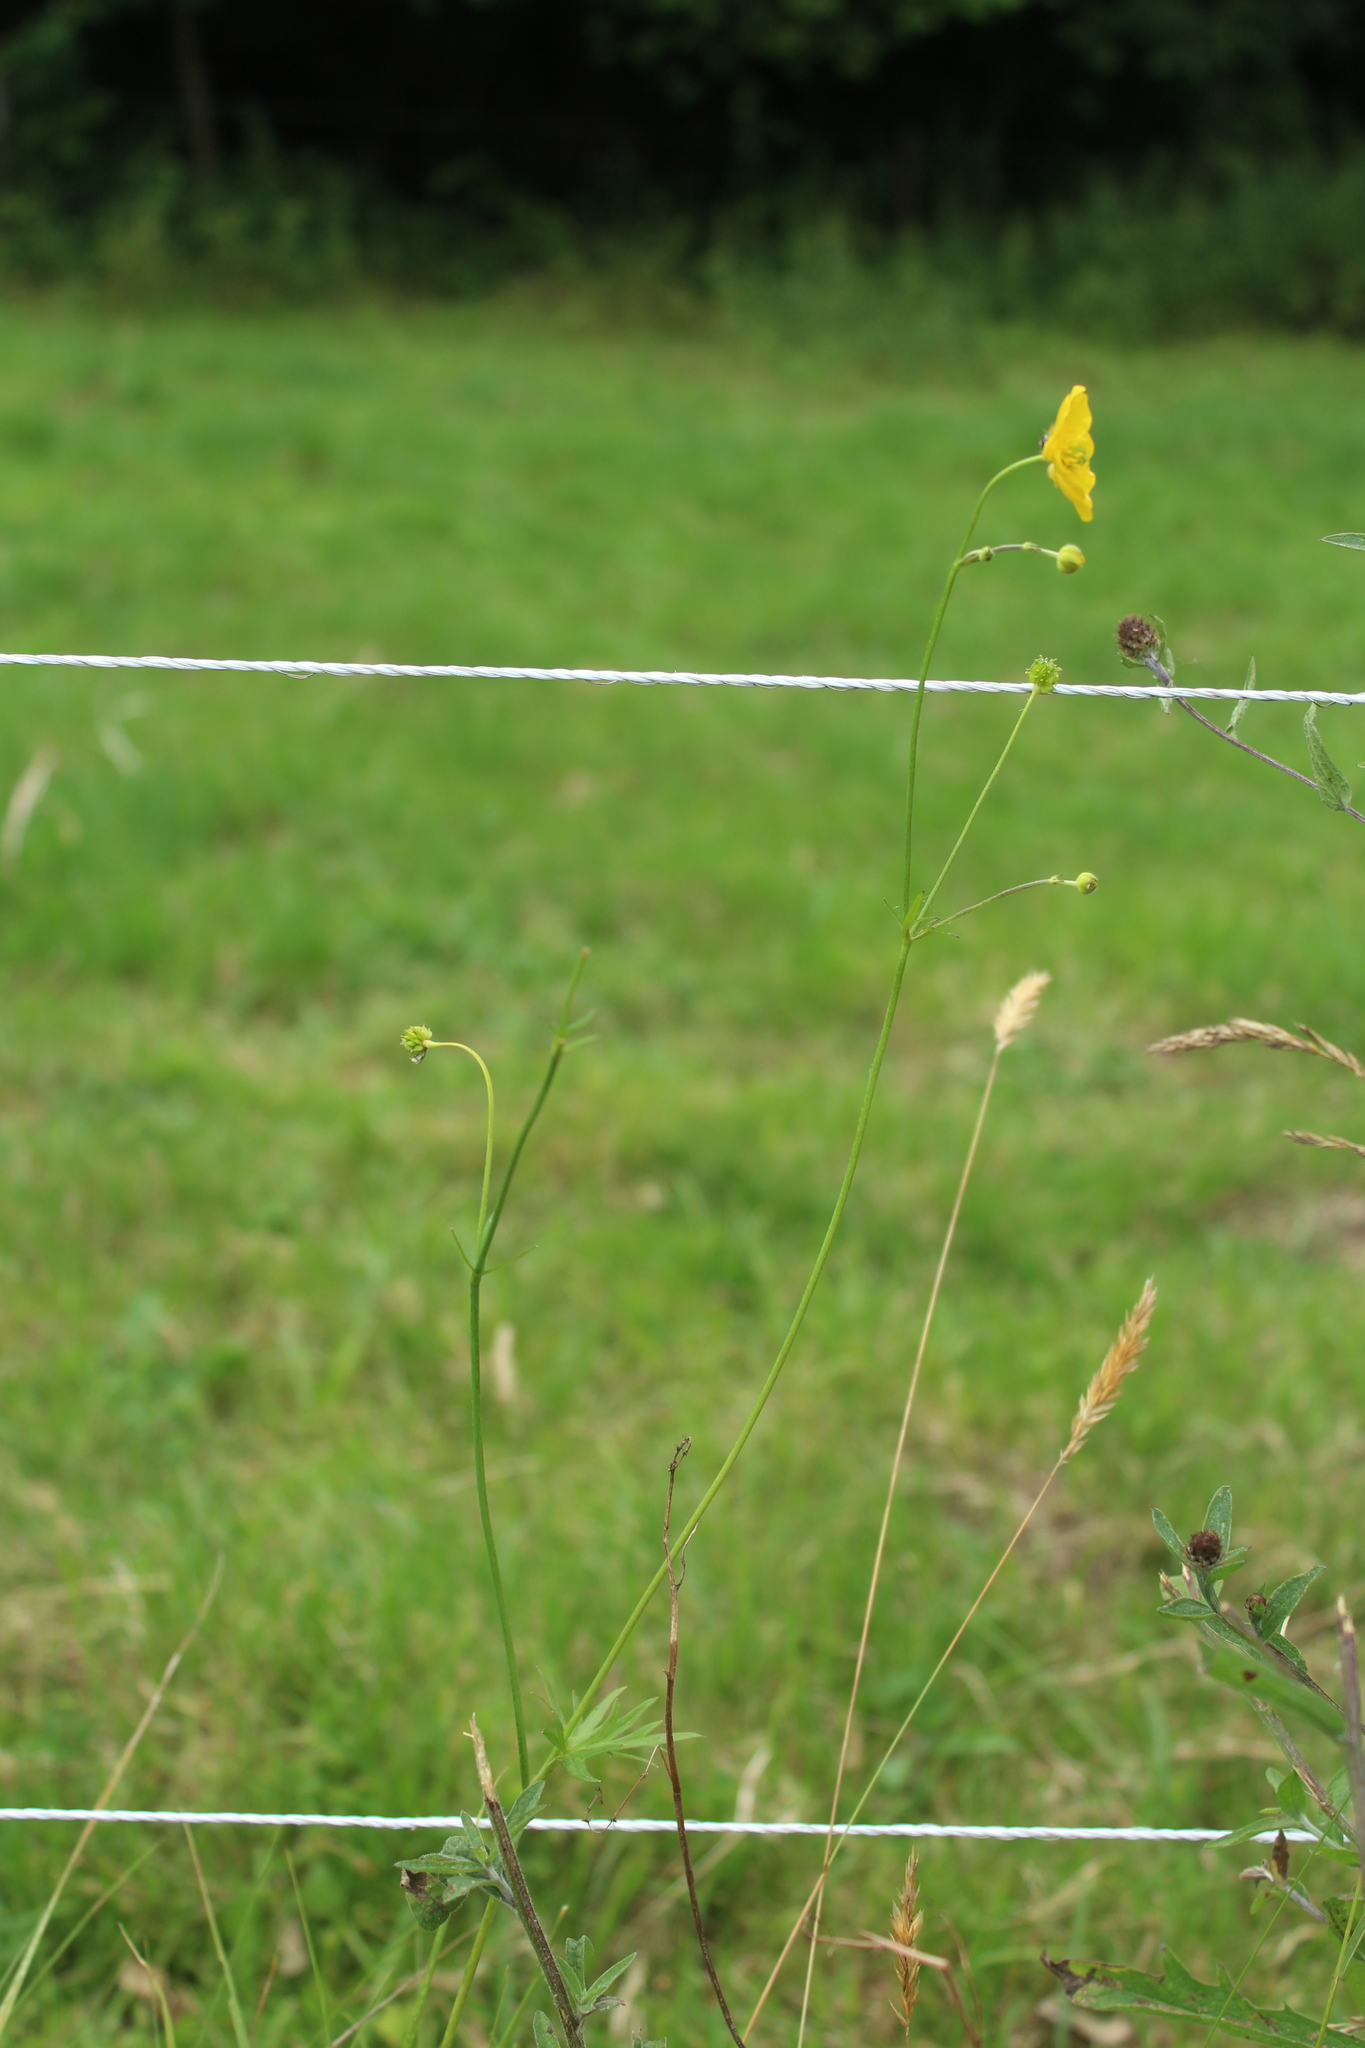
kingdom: Plantae
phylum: Tracheophyta
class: Magnoliopsida
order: Ranunculales
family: Ranunculaceae
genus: Ranunculus
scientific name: Ranunculus acris
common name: Meadow buttercup
